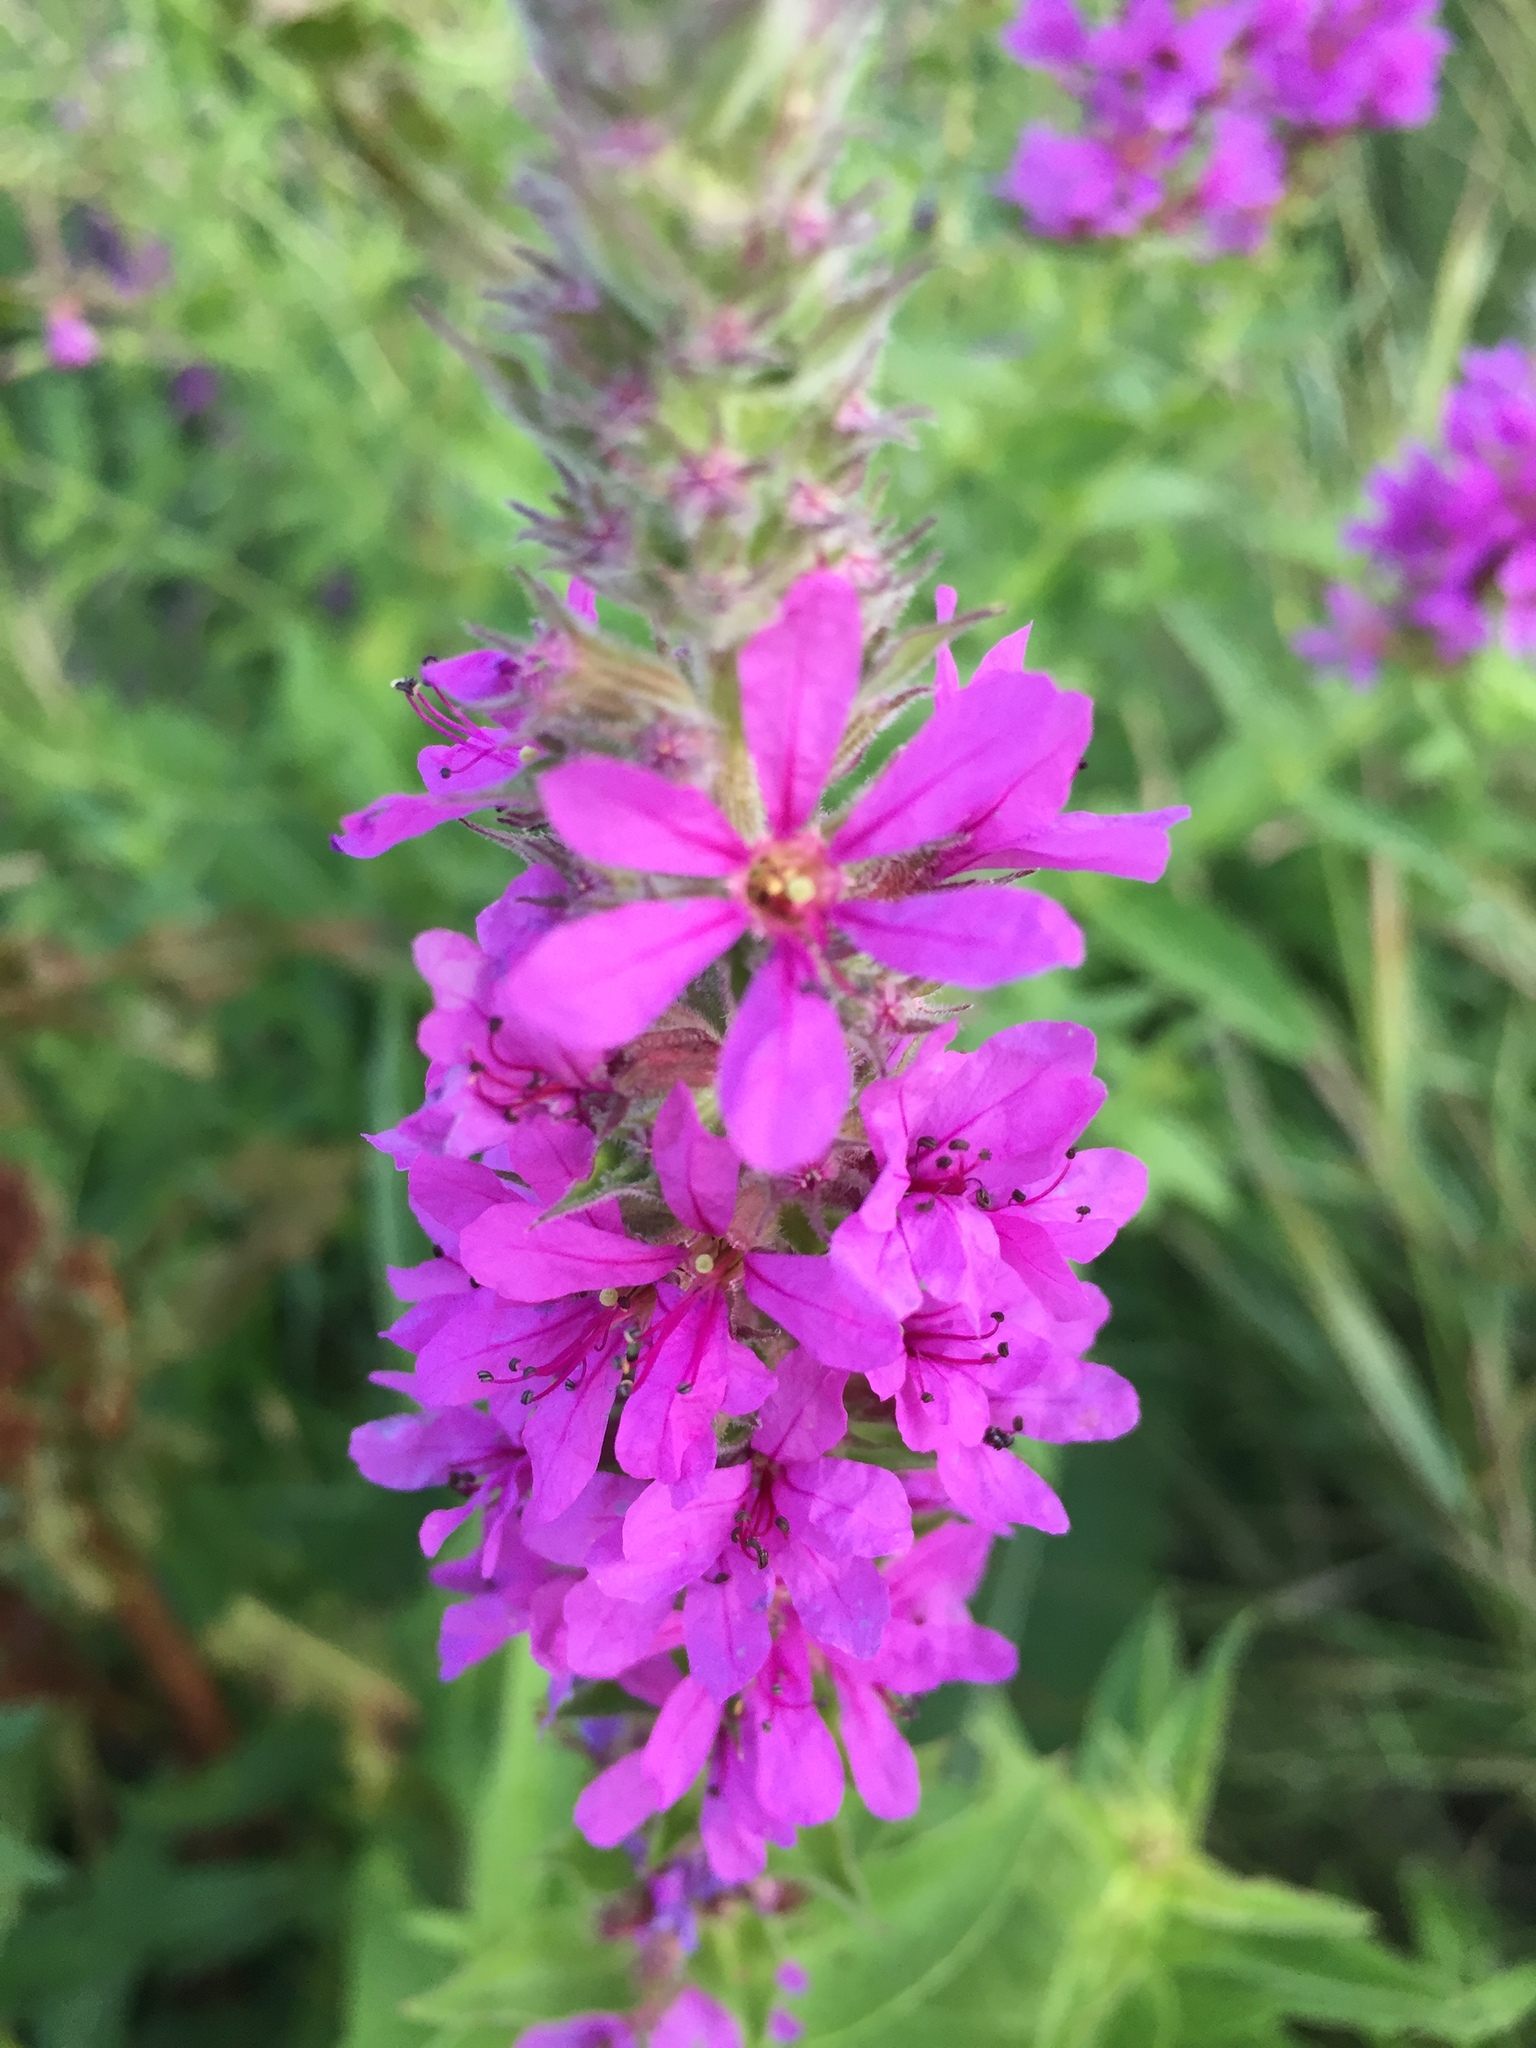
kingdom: Plantae
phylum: Tracheophyta
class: Magnoliopsida
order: Myrtales
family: Lythraceae
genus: Lythrum
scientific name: Lythrum salicaria
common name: Purple loosestrife
